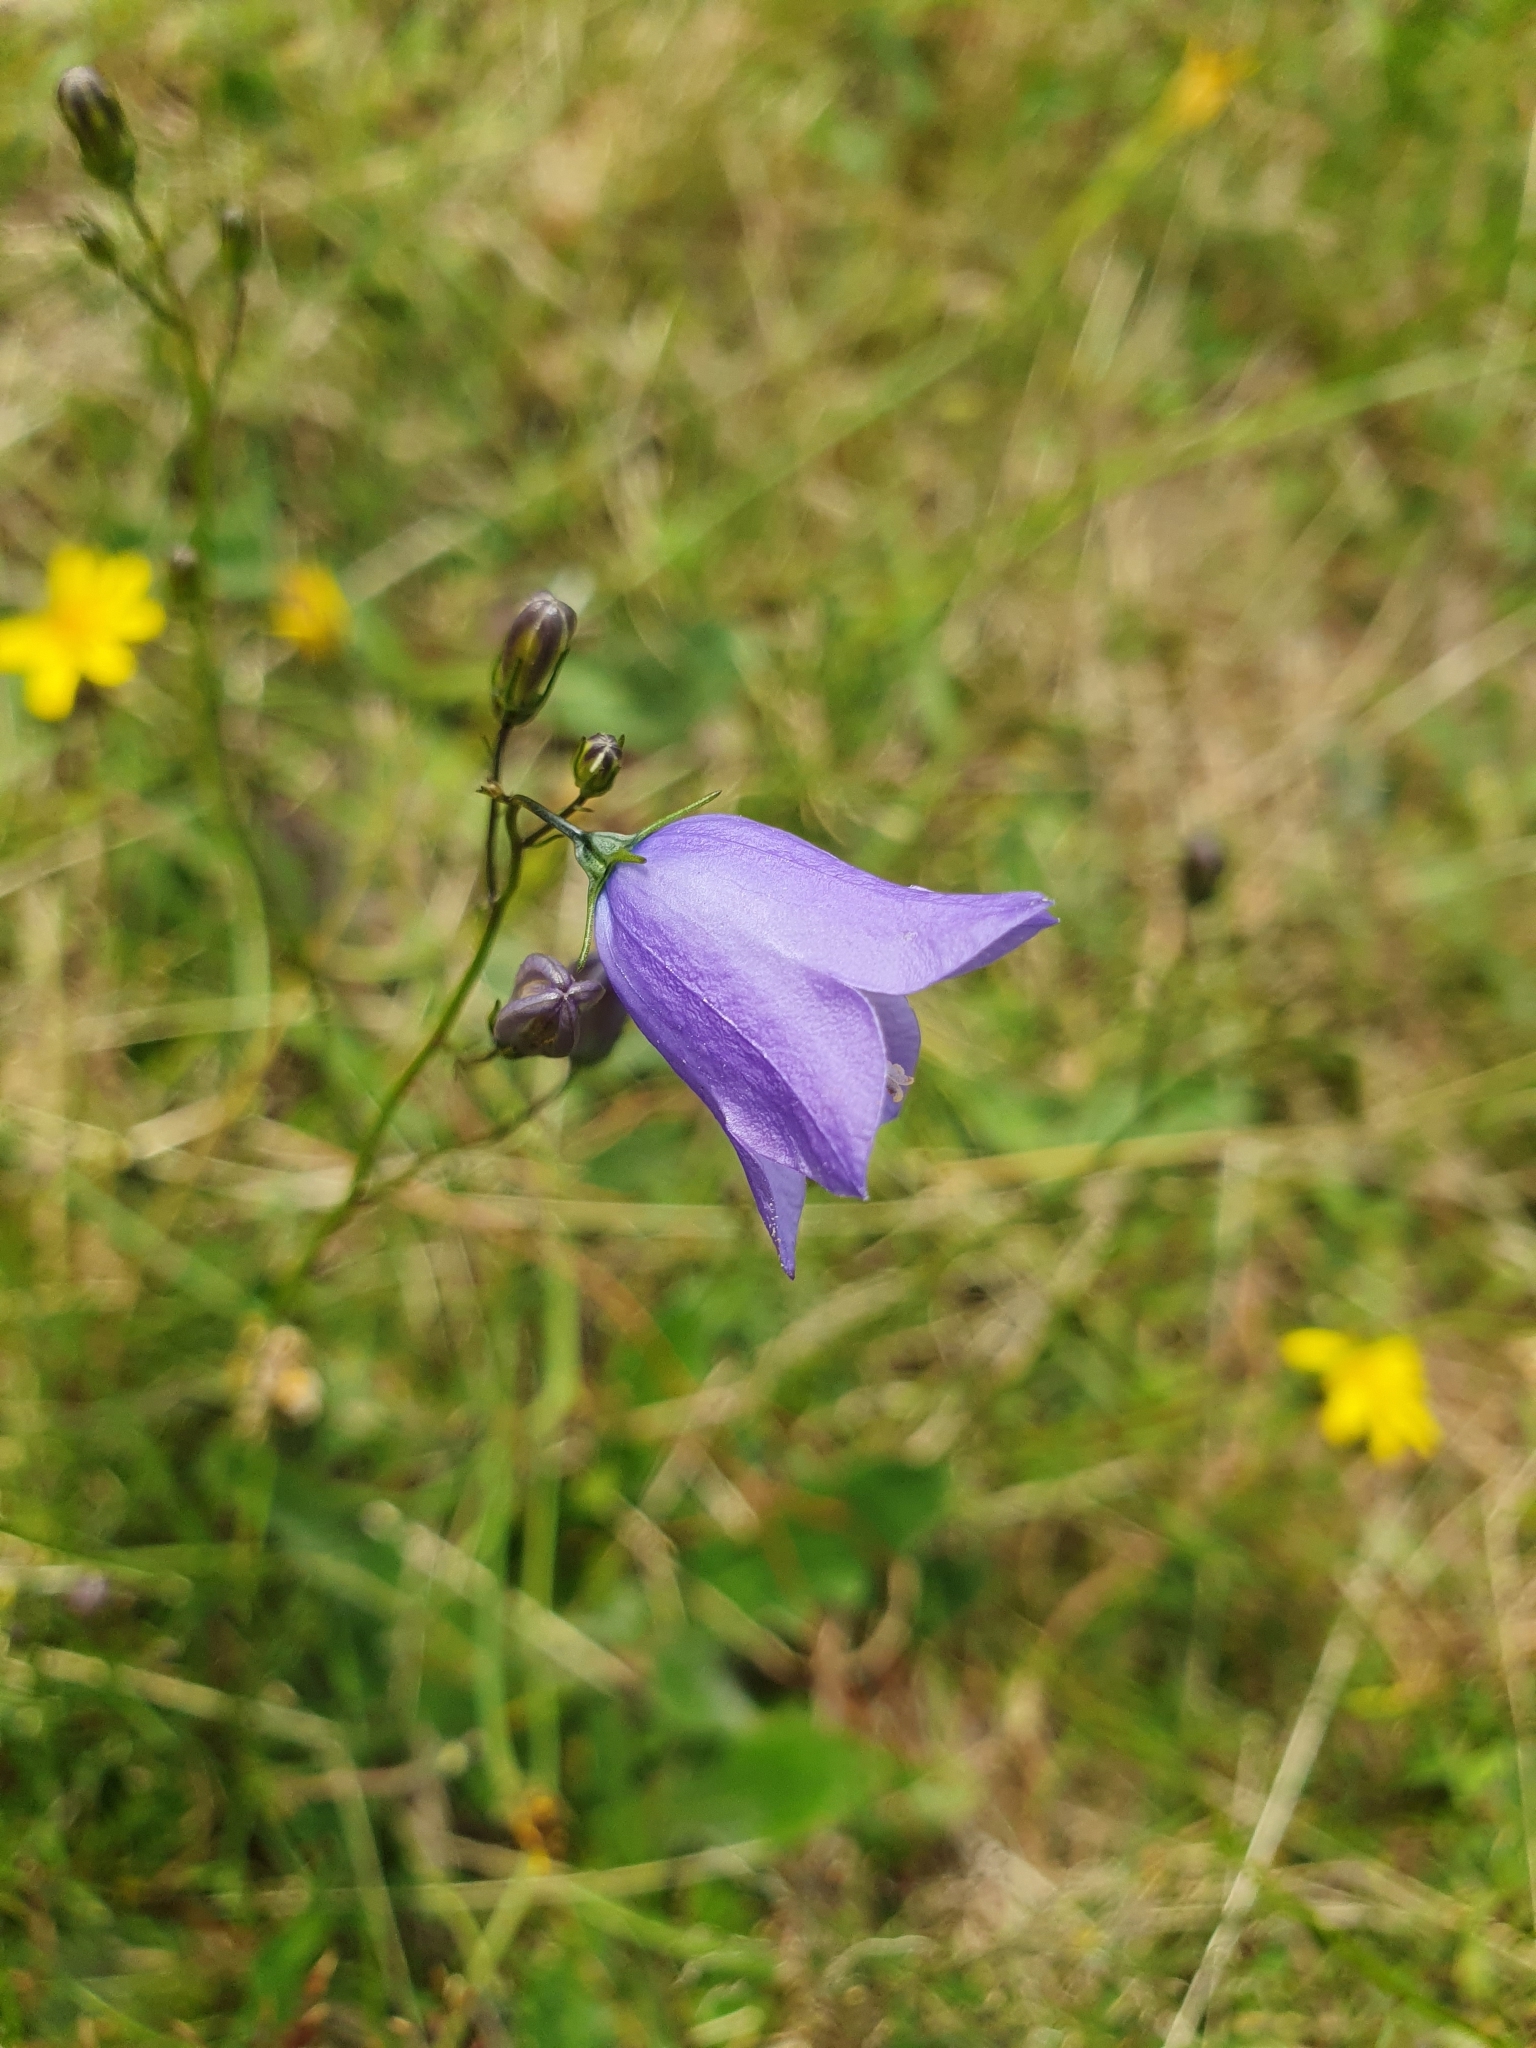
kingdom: Plantae
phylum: Tracheophyta
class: Magnoliopsida
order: Asterales
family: Campanulaceae
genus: Campanula
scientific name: Campanula rotundifolia
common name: Harebell
